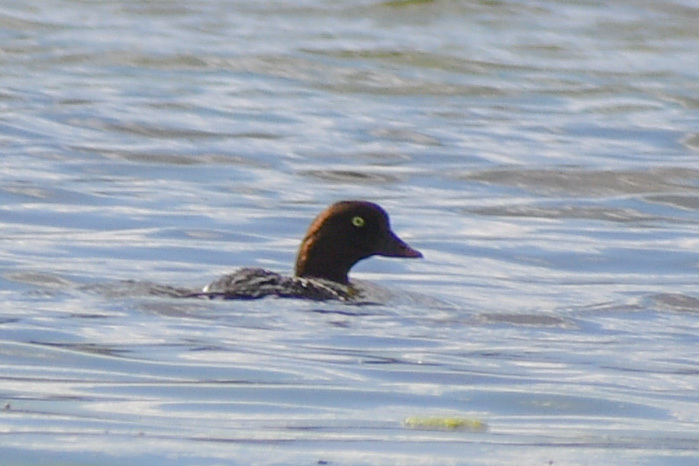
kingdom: Animalia
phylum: Chordata
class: Aves
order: Anseriformes
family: Anatidae
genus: Bucephala
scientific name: Bucephala clangula
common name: Common goldeneye
